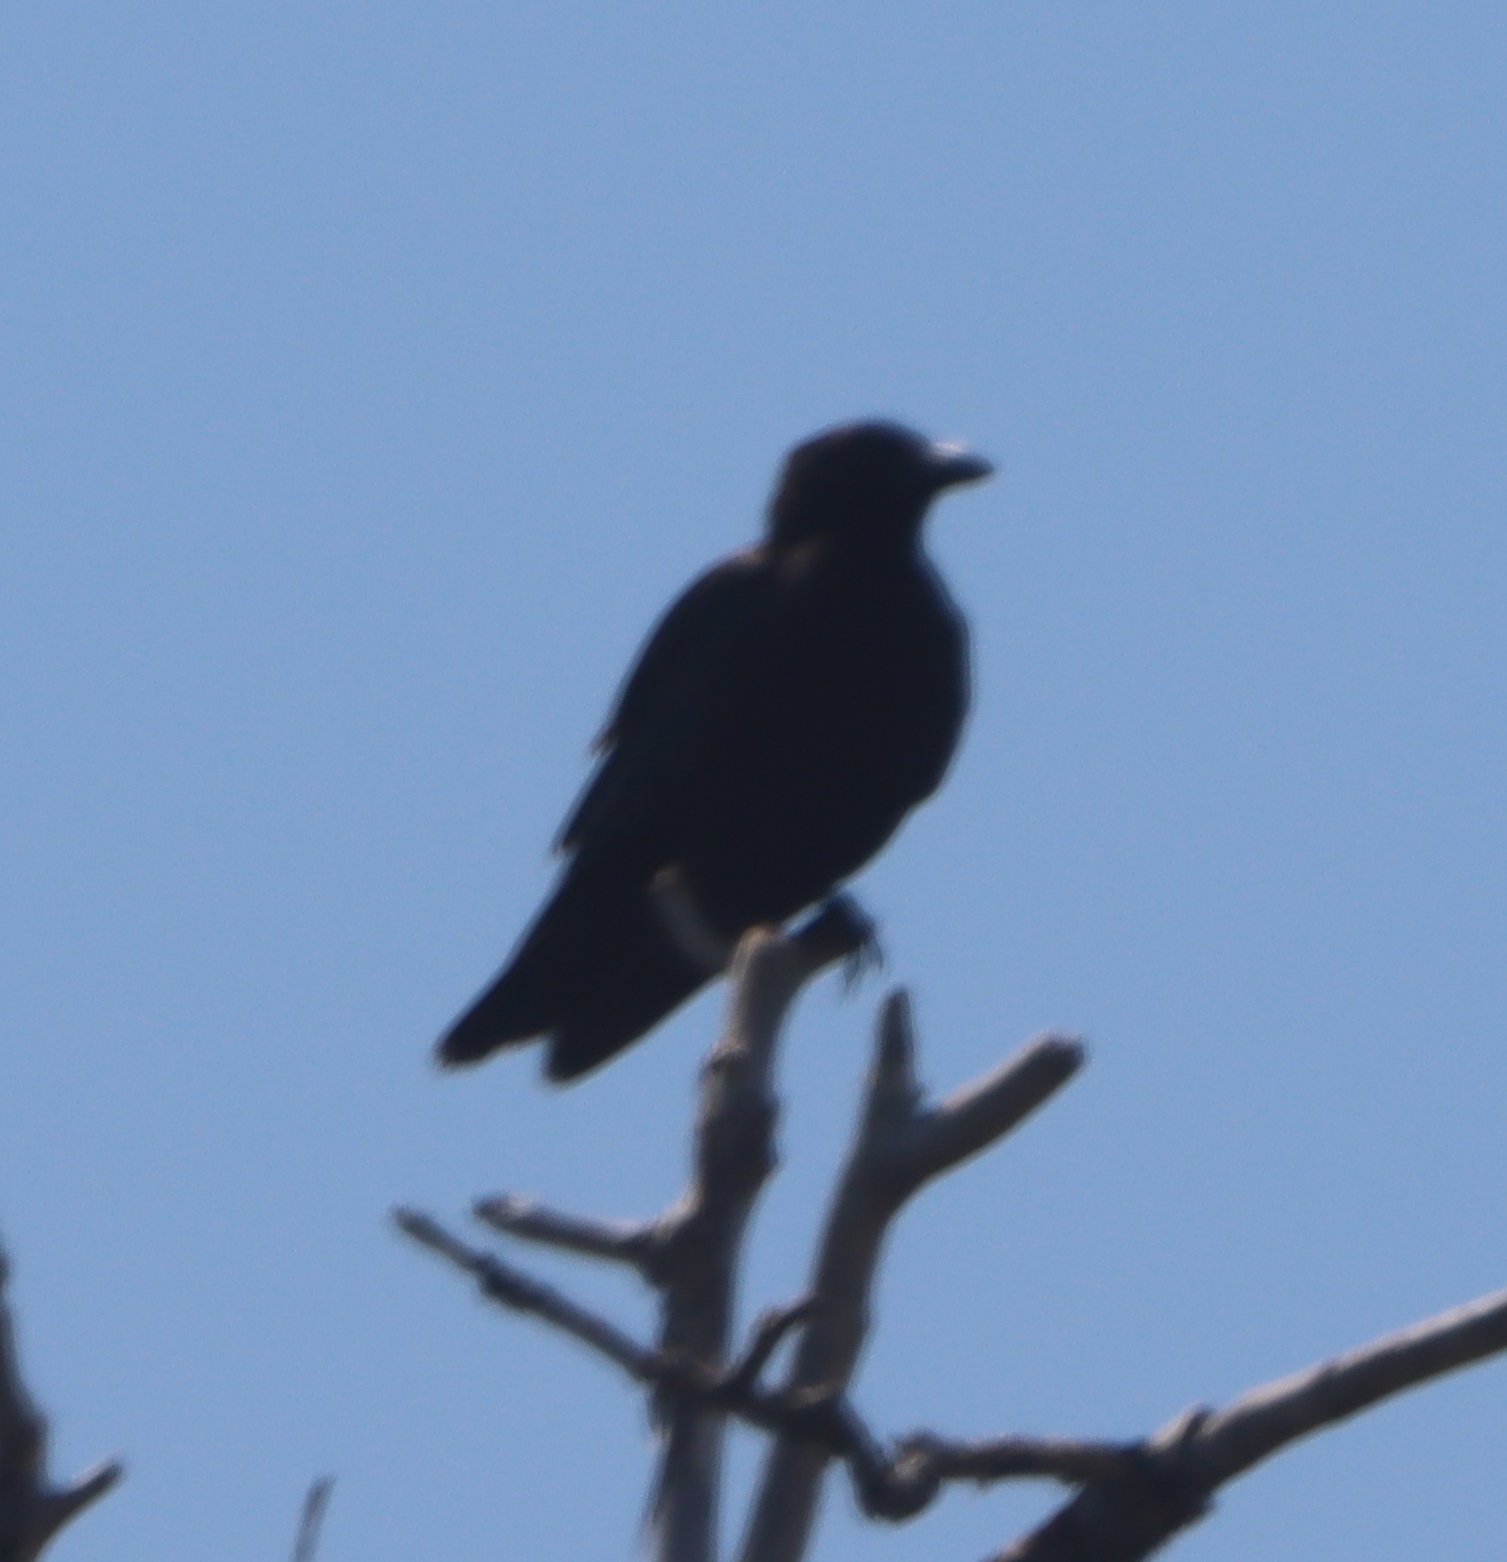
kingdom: Animalia
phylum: Chordata
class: Aves
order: Passeriformes
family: Corvidae
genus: Corvus
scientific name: Corvus brachyrhynchos
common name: American crow
